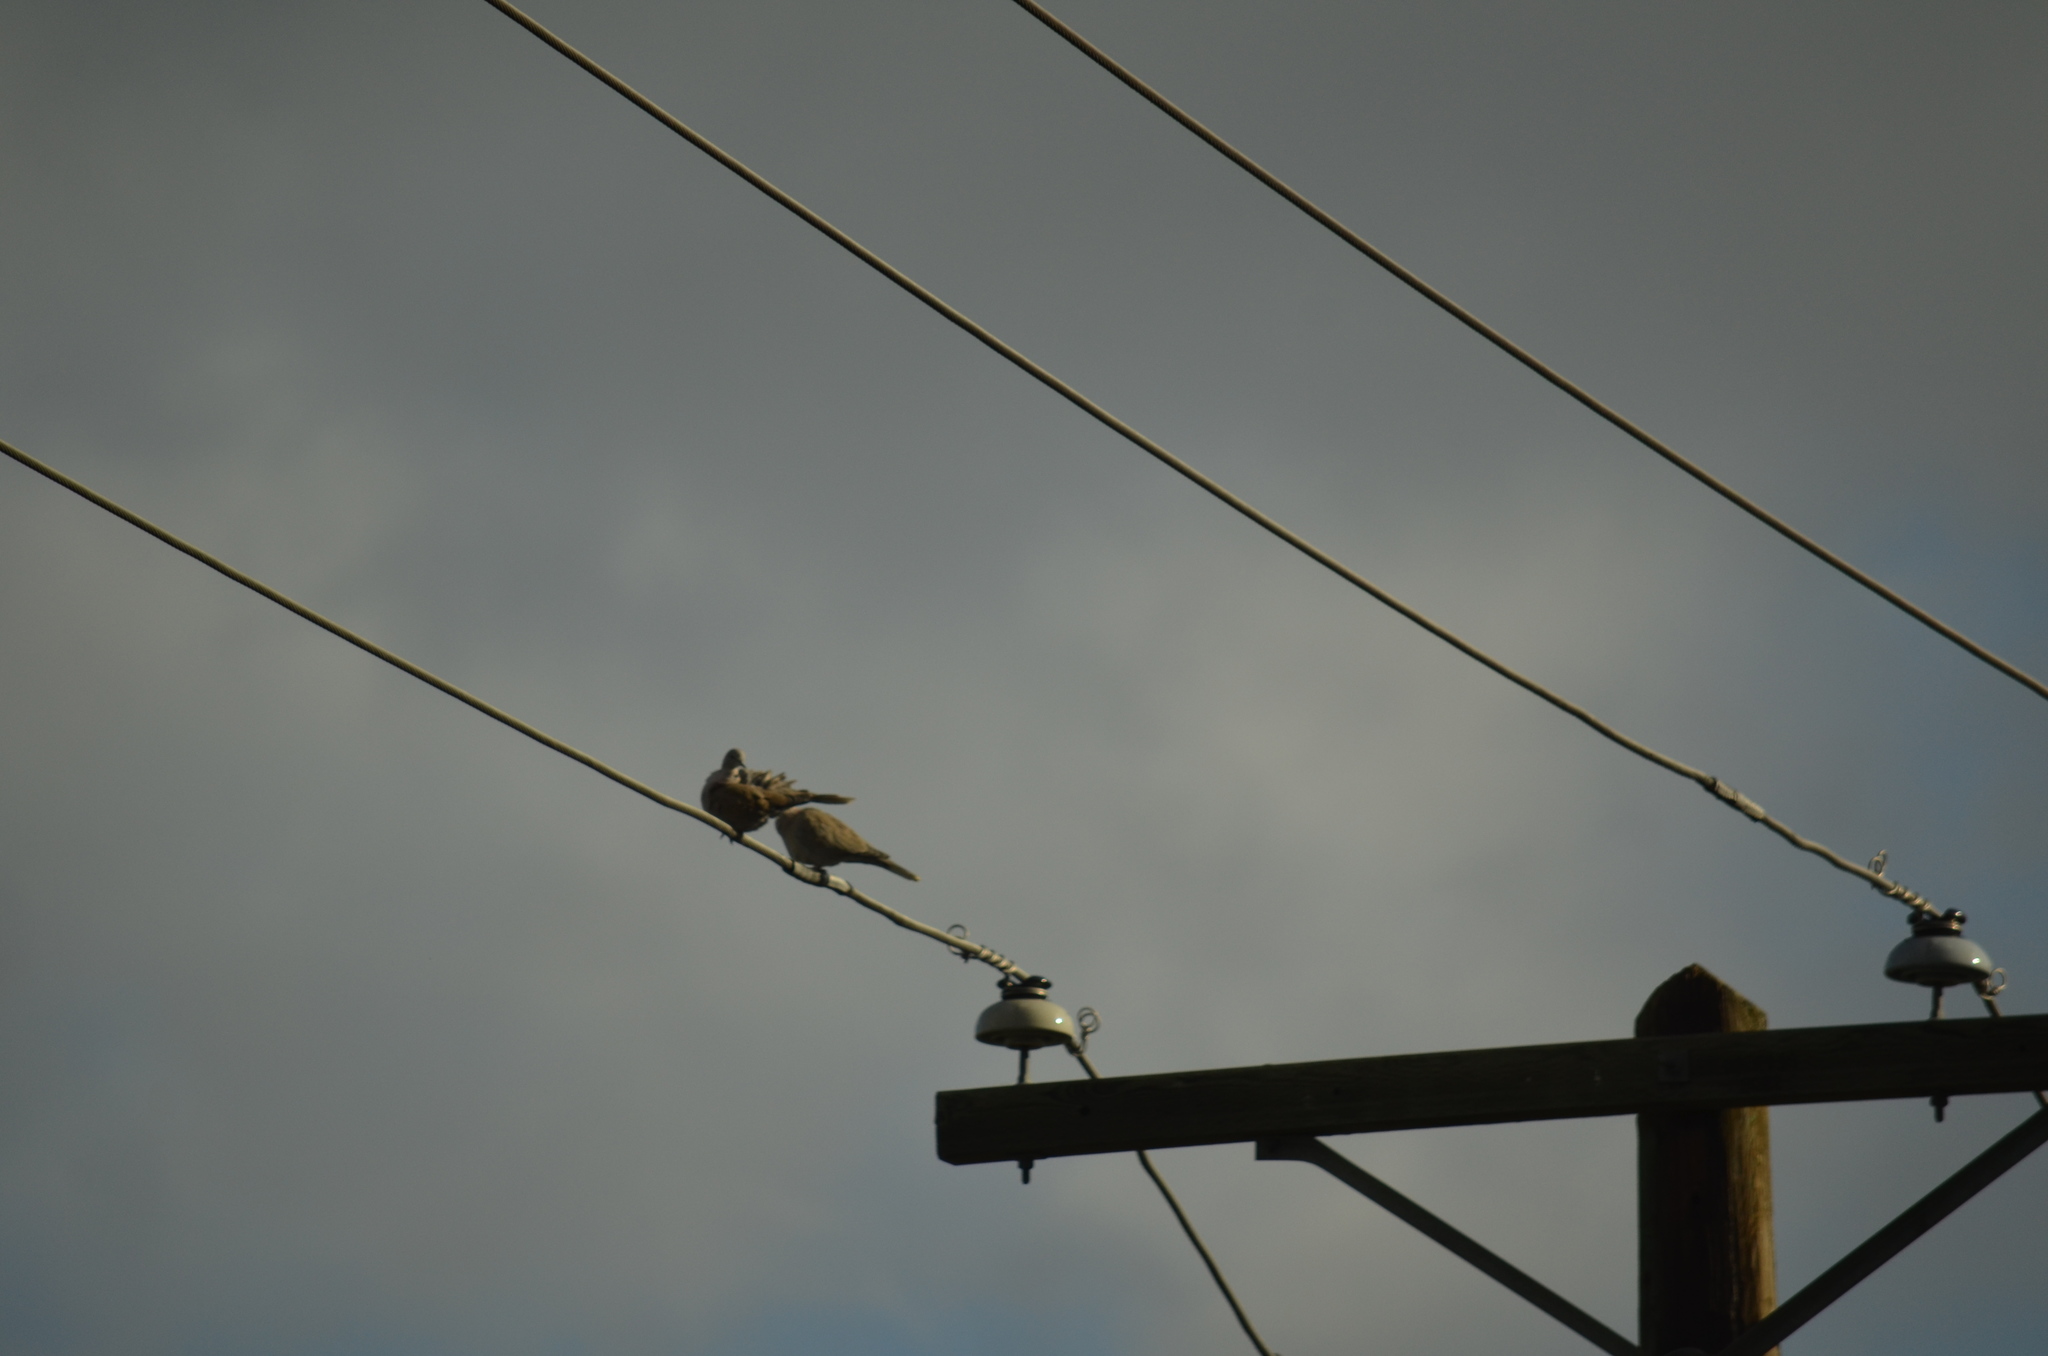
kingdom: Animalia
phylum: Chordata
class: Aves
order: Columbiformes
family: Columbidae
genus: Streptopelia
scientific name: Streptopelia decaocto
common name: Eurasian collared dove
